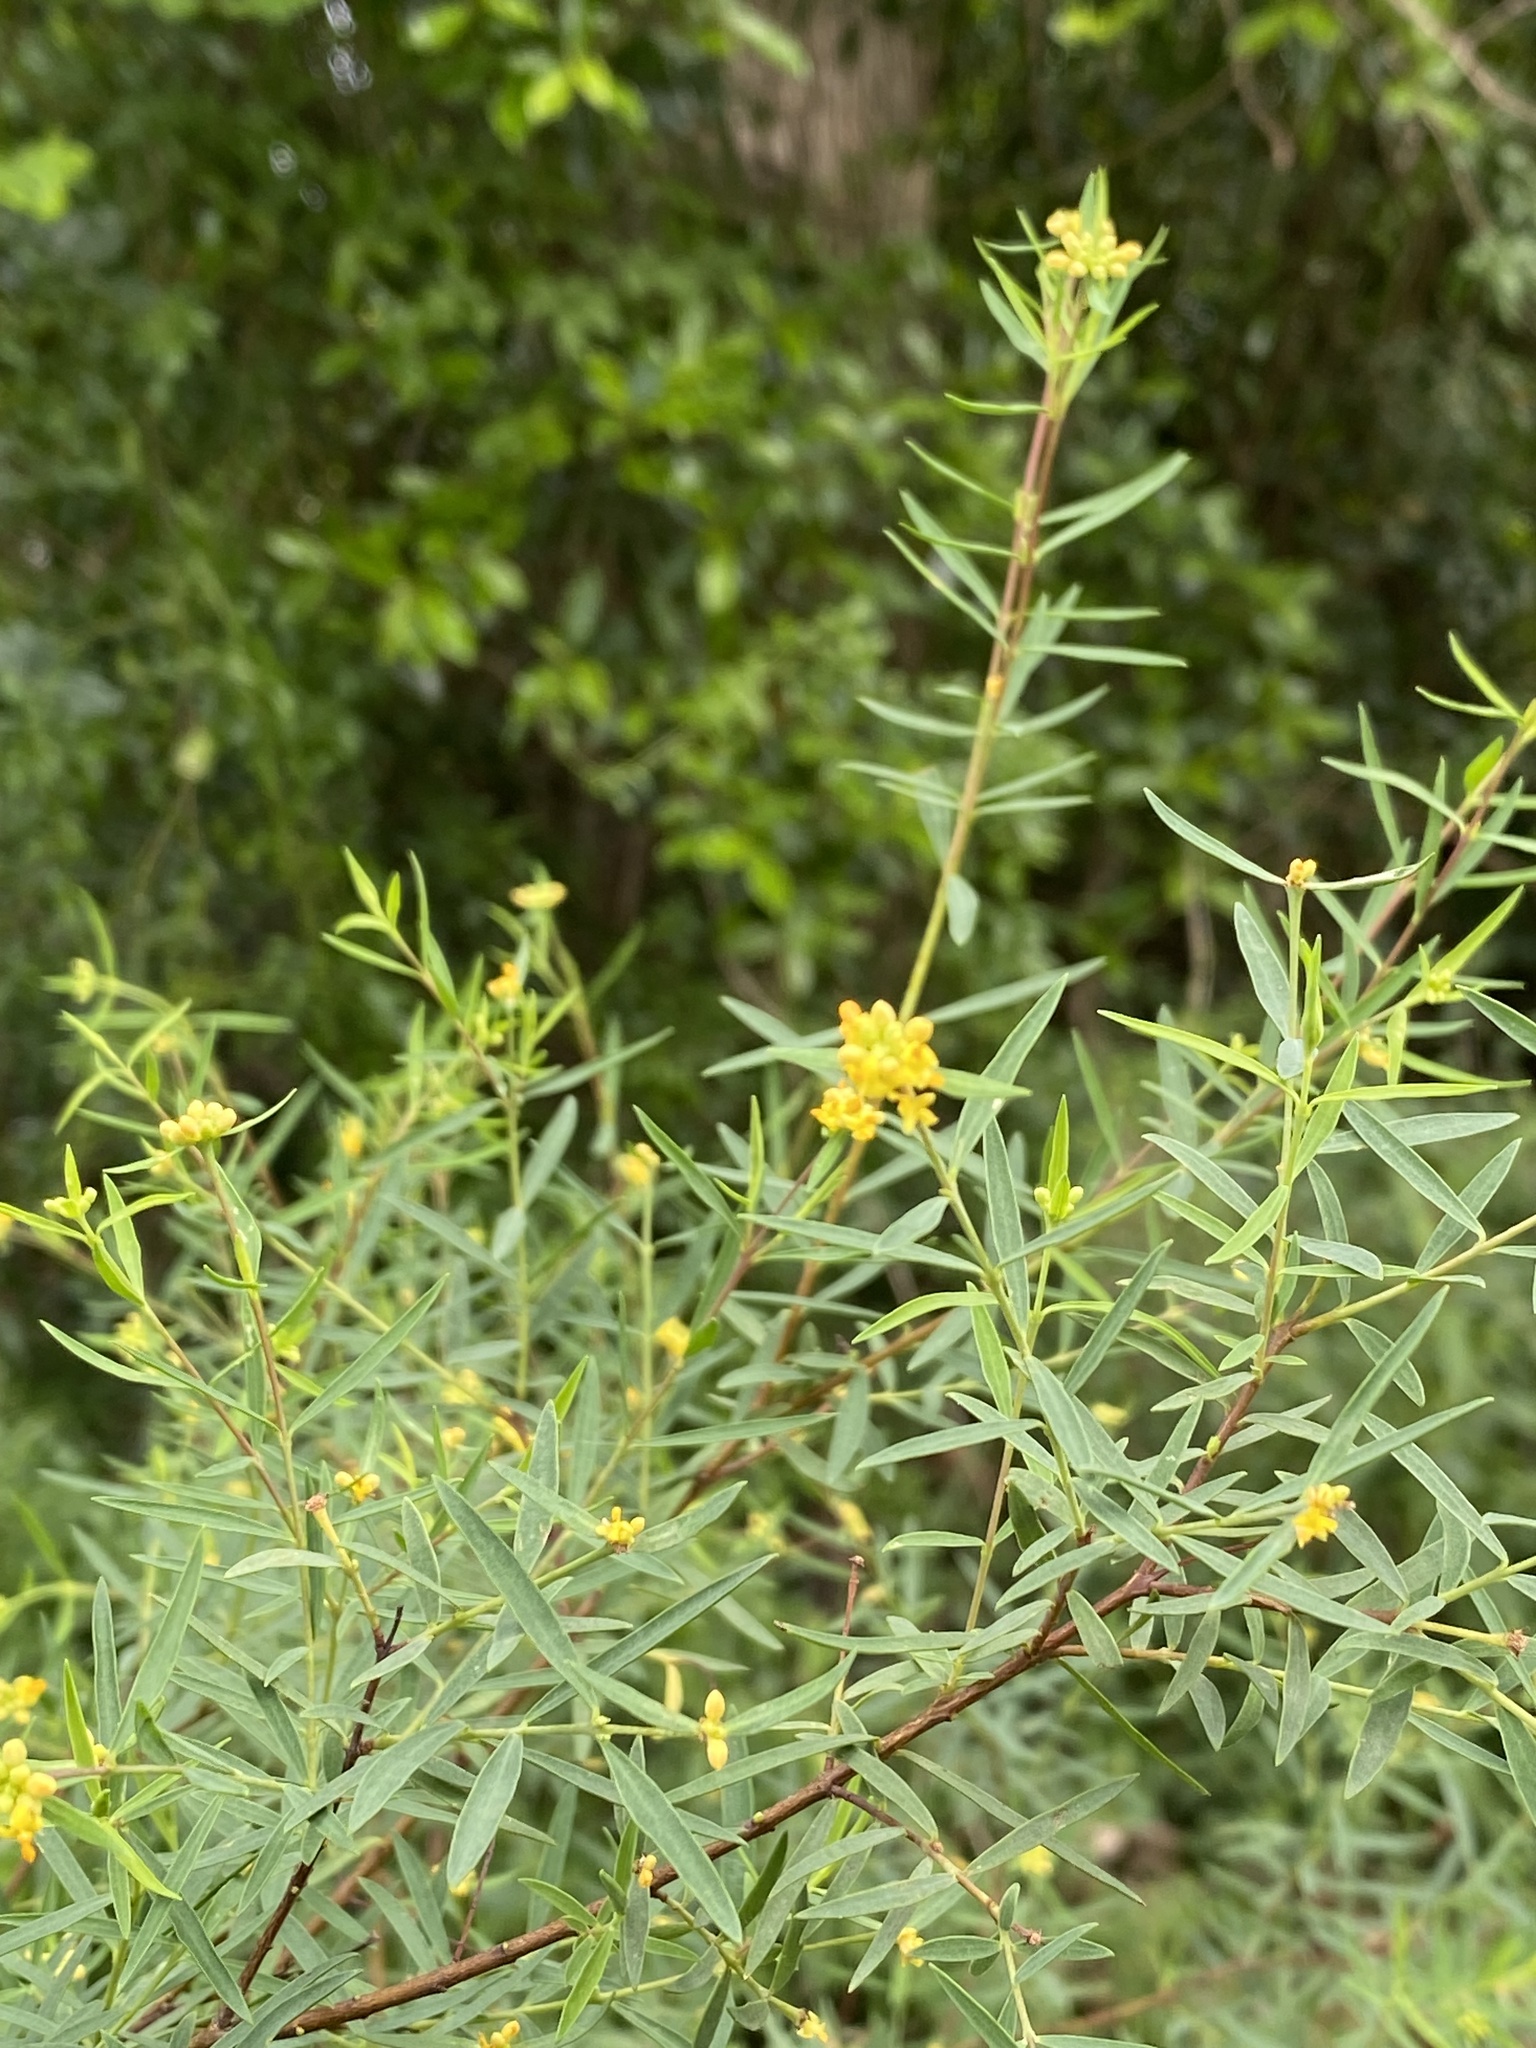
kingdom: Plantae
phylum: Tracheophyta
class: Magnoliopsida
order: Malvales
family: Thymelaeaceae
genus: Pimelea
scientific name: Pimelea neoanglica
